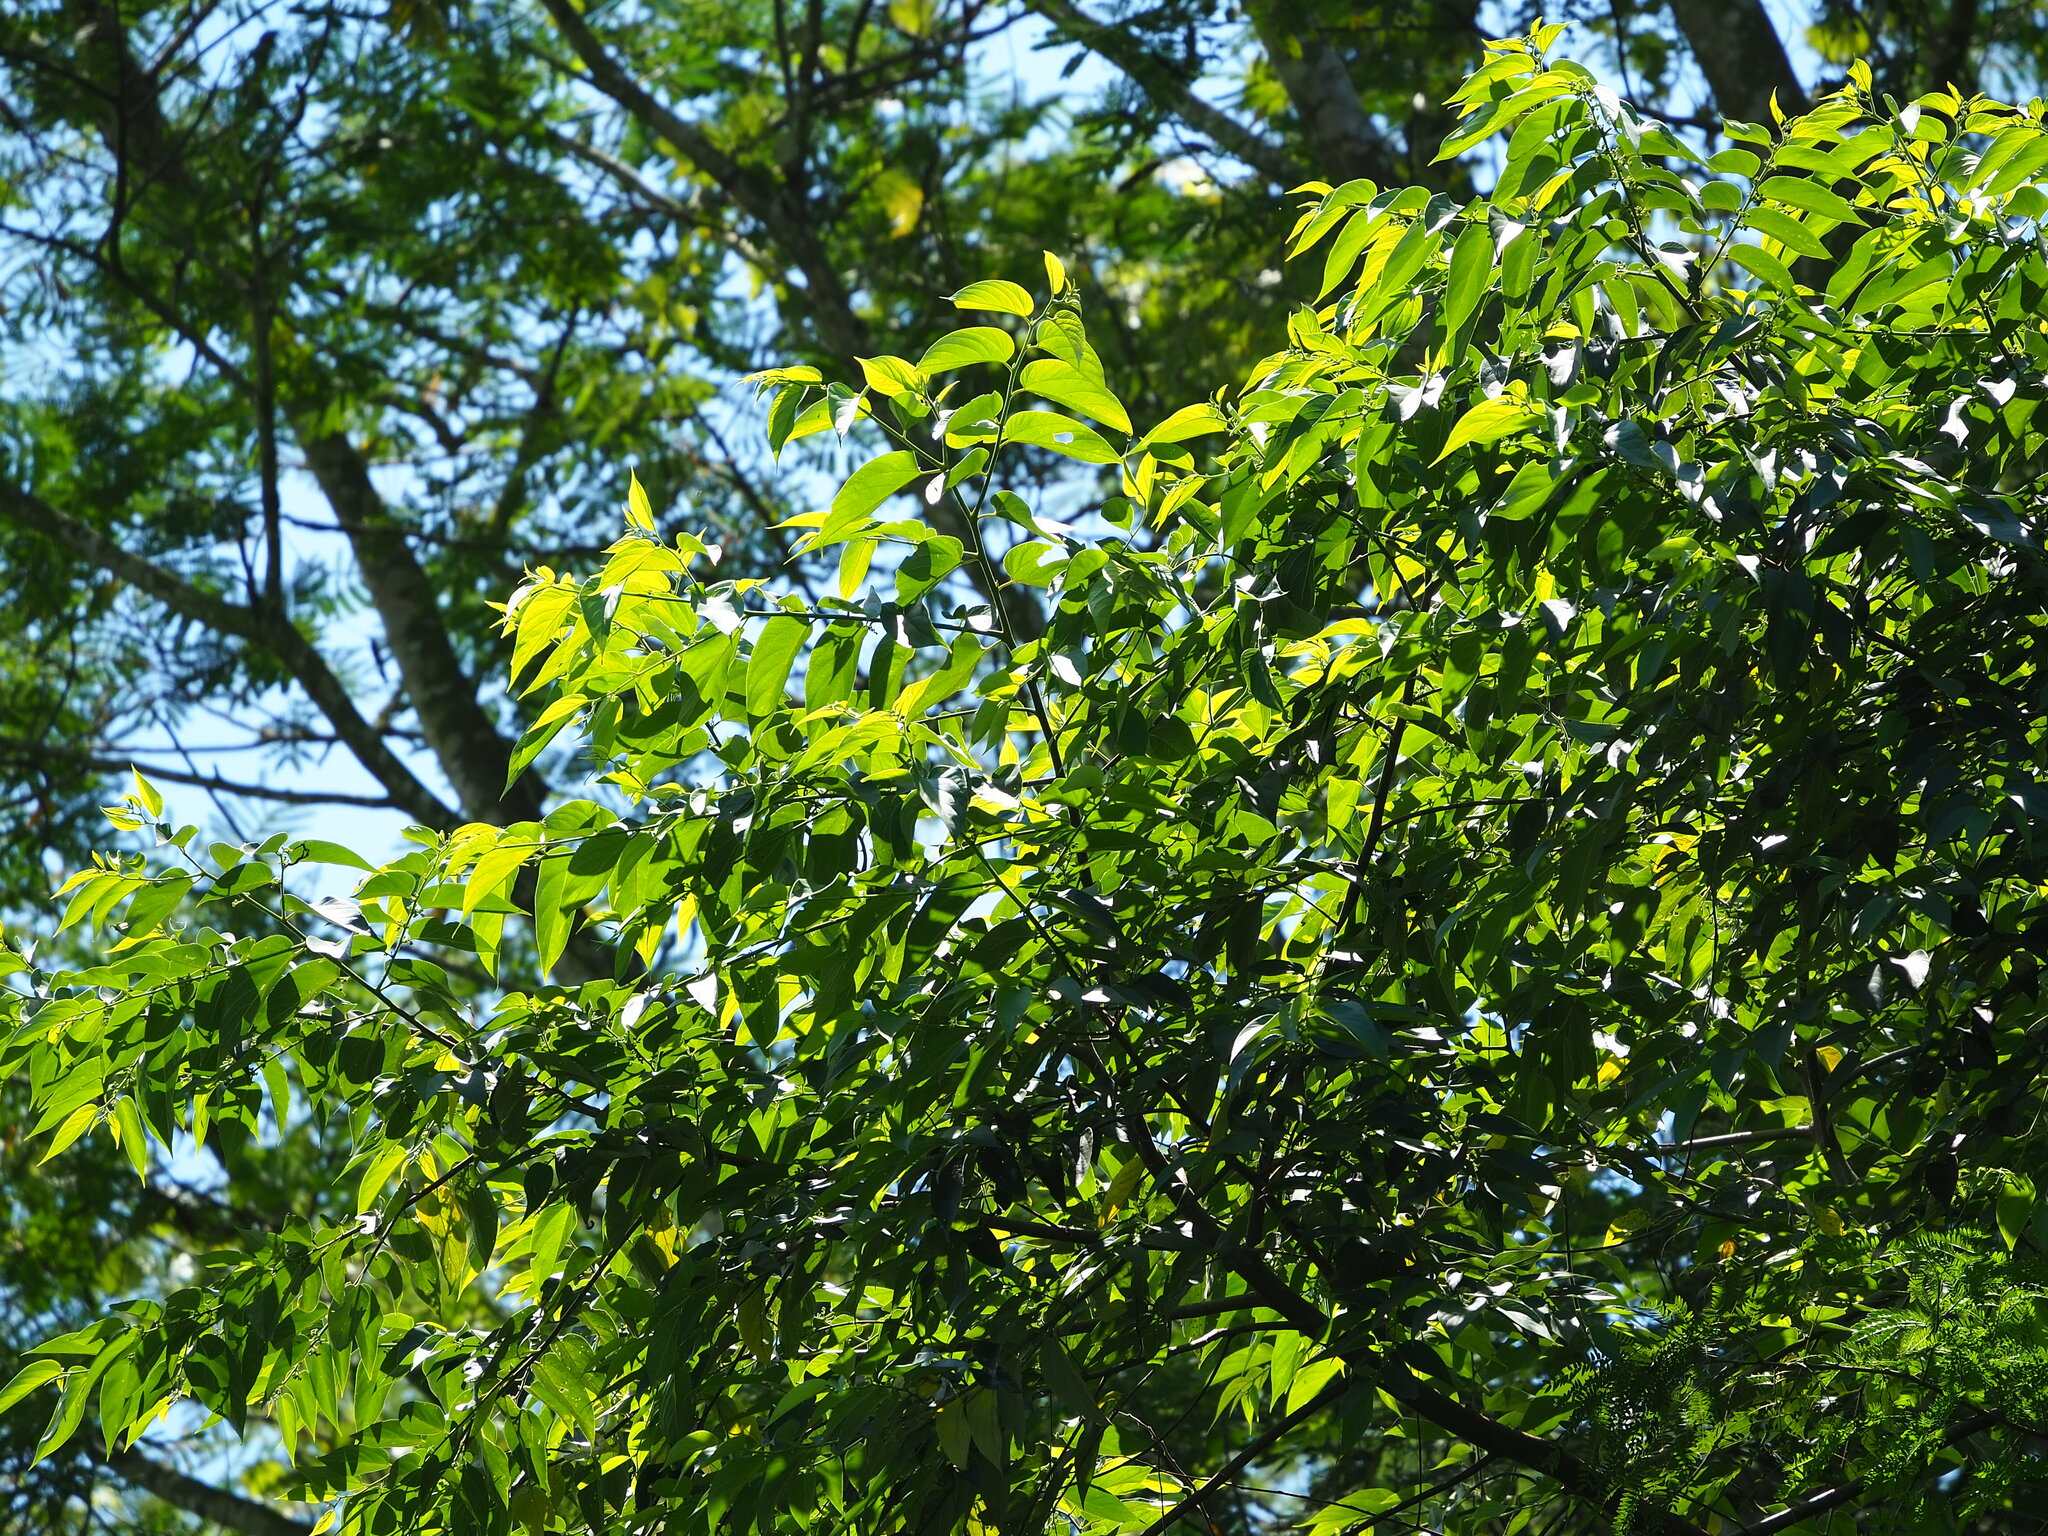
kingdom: Plantae
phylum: Tracheophyta
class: Magnoliopsida
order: Rosales
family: Cannabaceae
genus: Trema
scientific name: Trema orientale
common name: Indian charcoal tree
